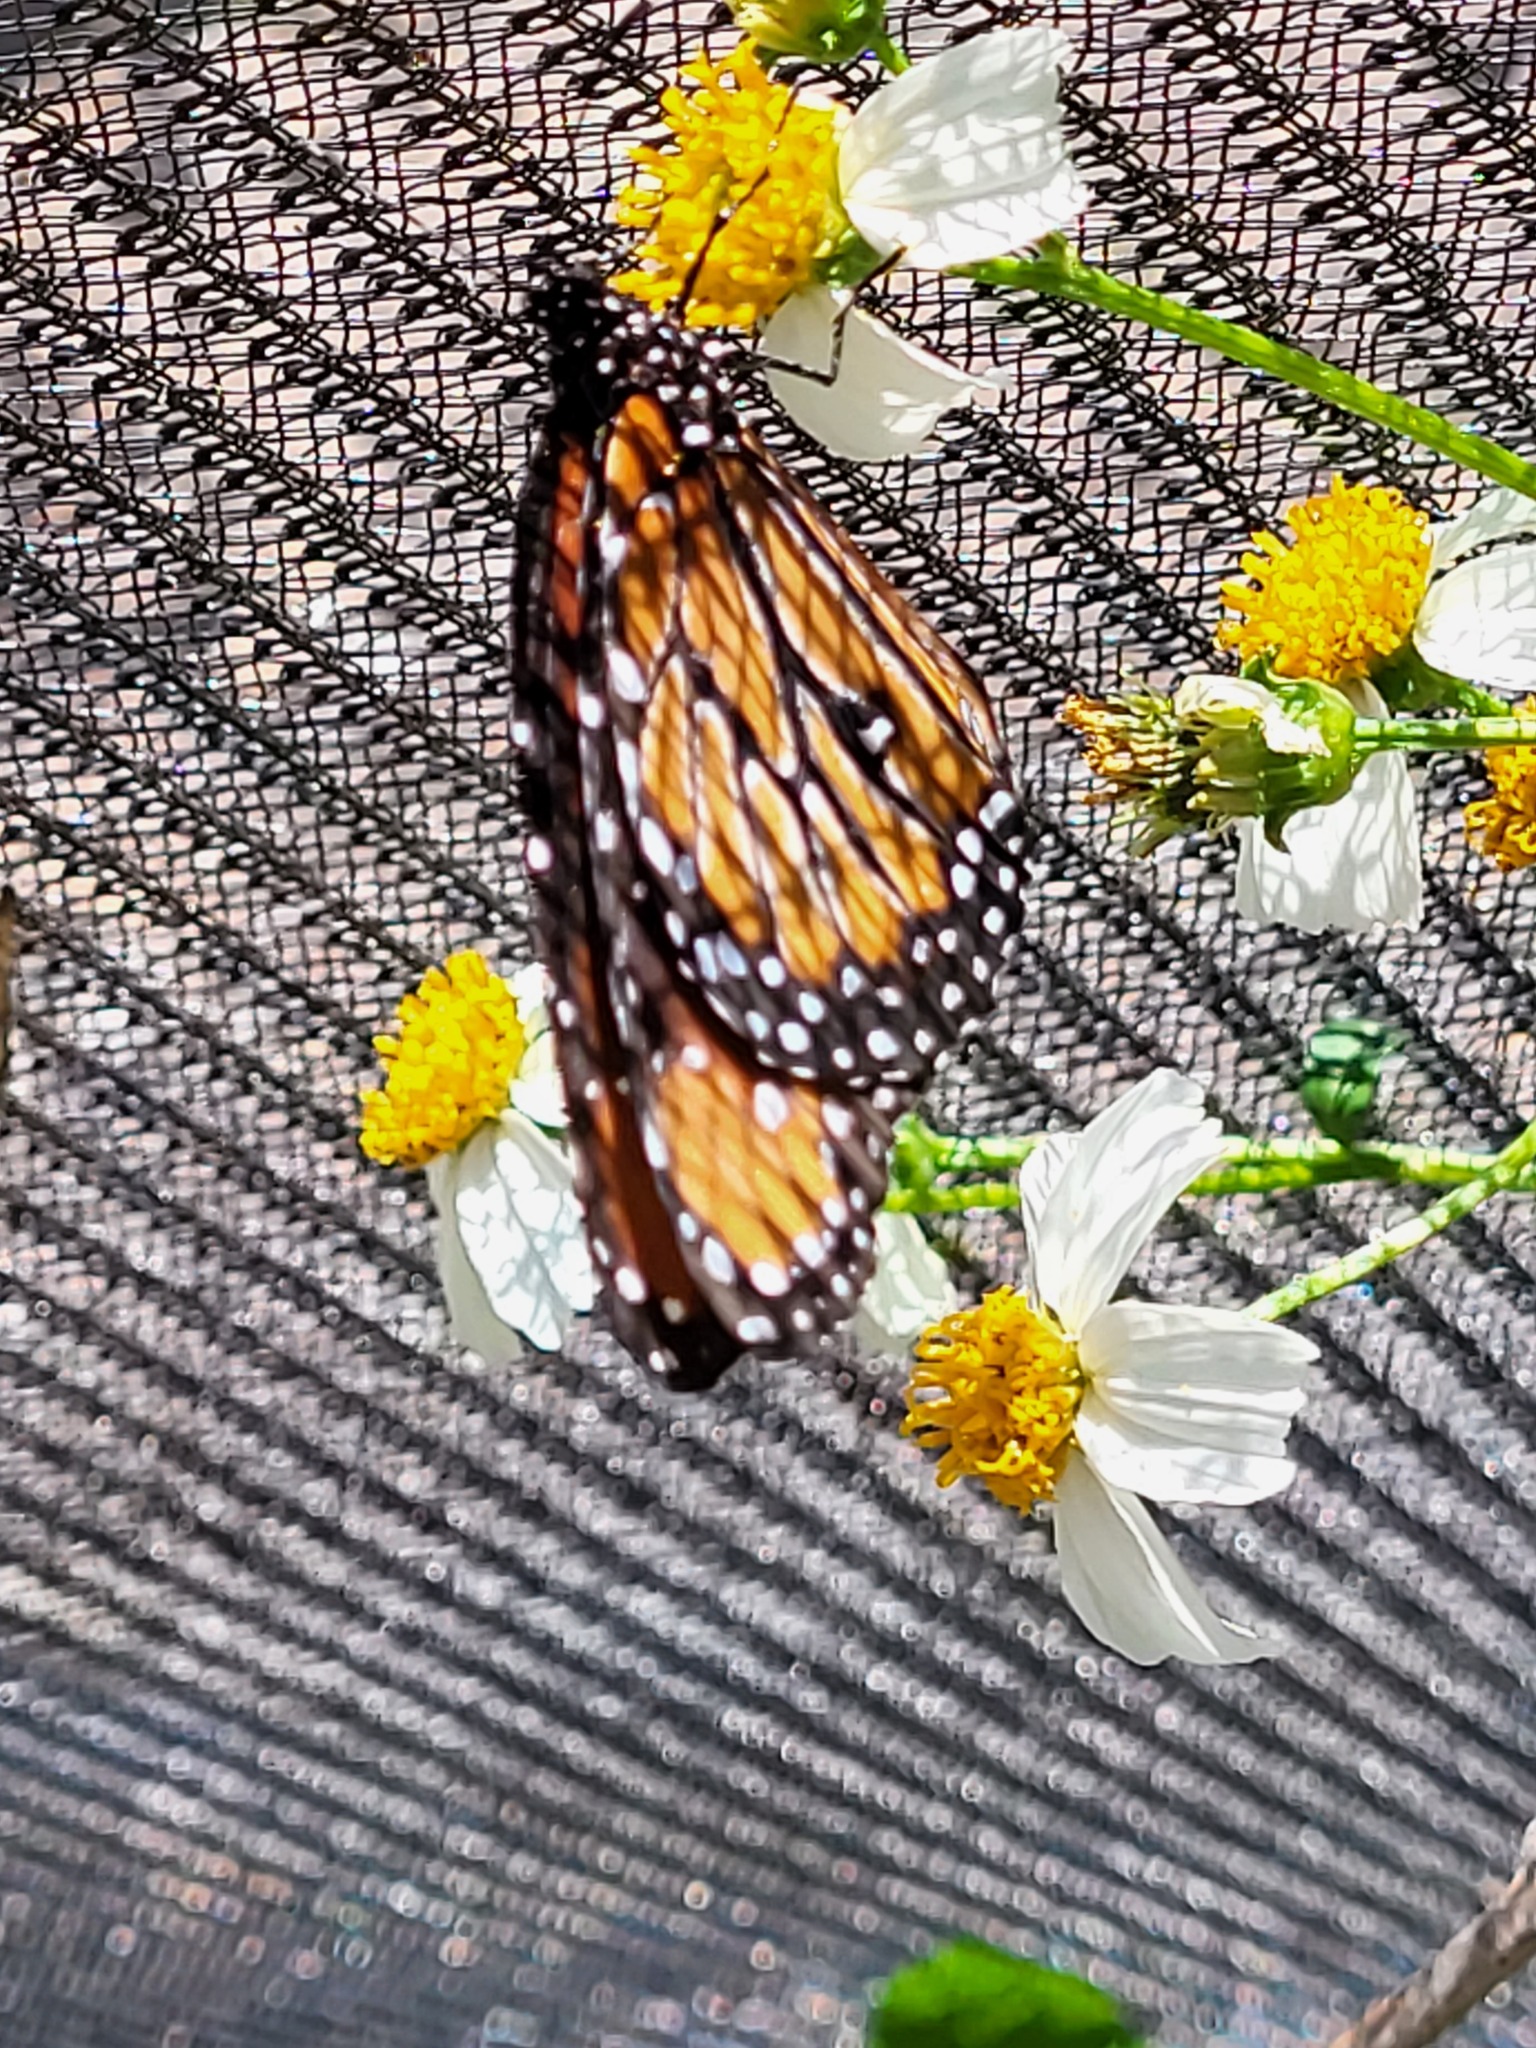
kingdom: Animalia
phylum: Arthropoda
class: Insecta
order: Lepidoptera
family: Nymphalidae
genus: Danaus
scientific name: Danaus gilippus
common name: Queen
